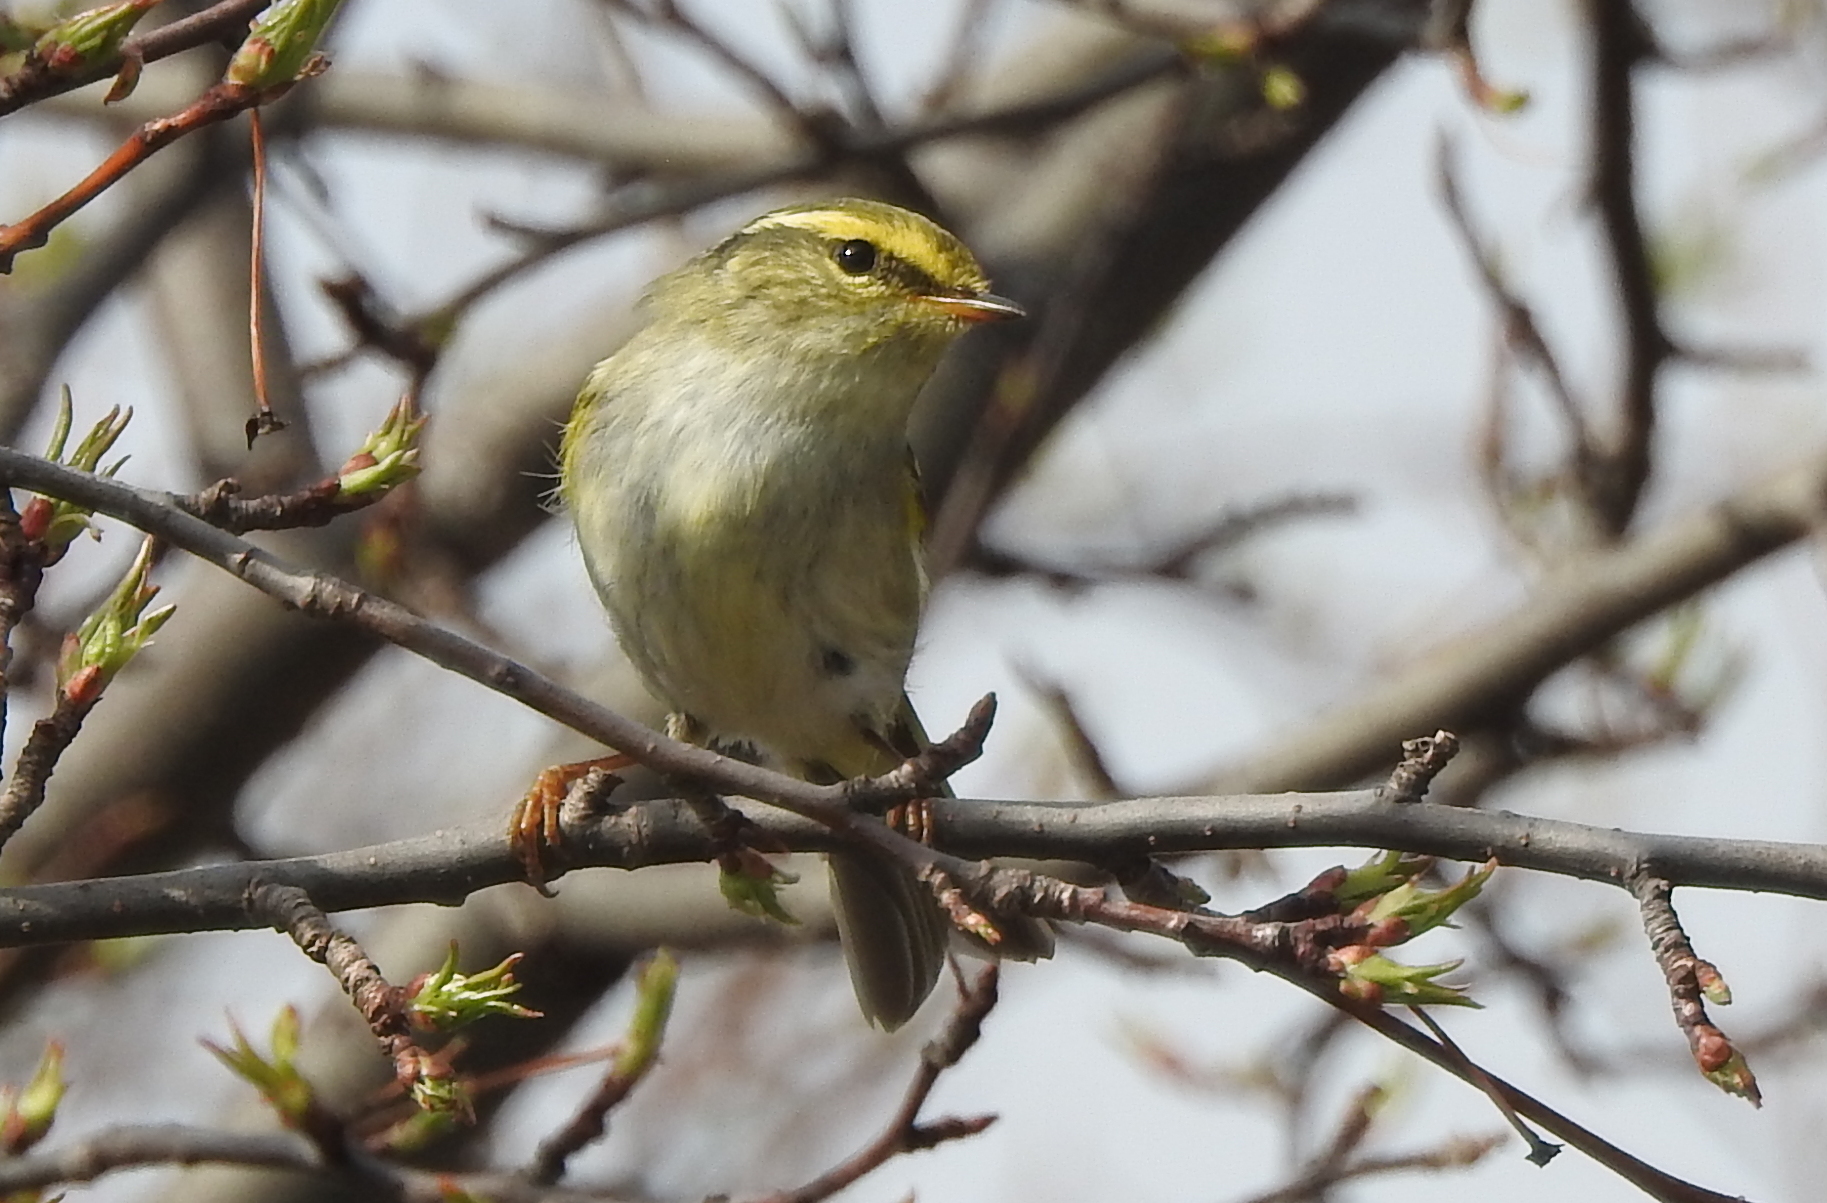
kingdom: Animalia
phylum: Chordata
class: Aves
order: Passeriformes
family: Phylloscopidae
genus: Phylloscopus
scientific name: Phylloscopus proregulus
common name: Pallas's leaf warbler
